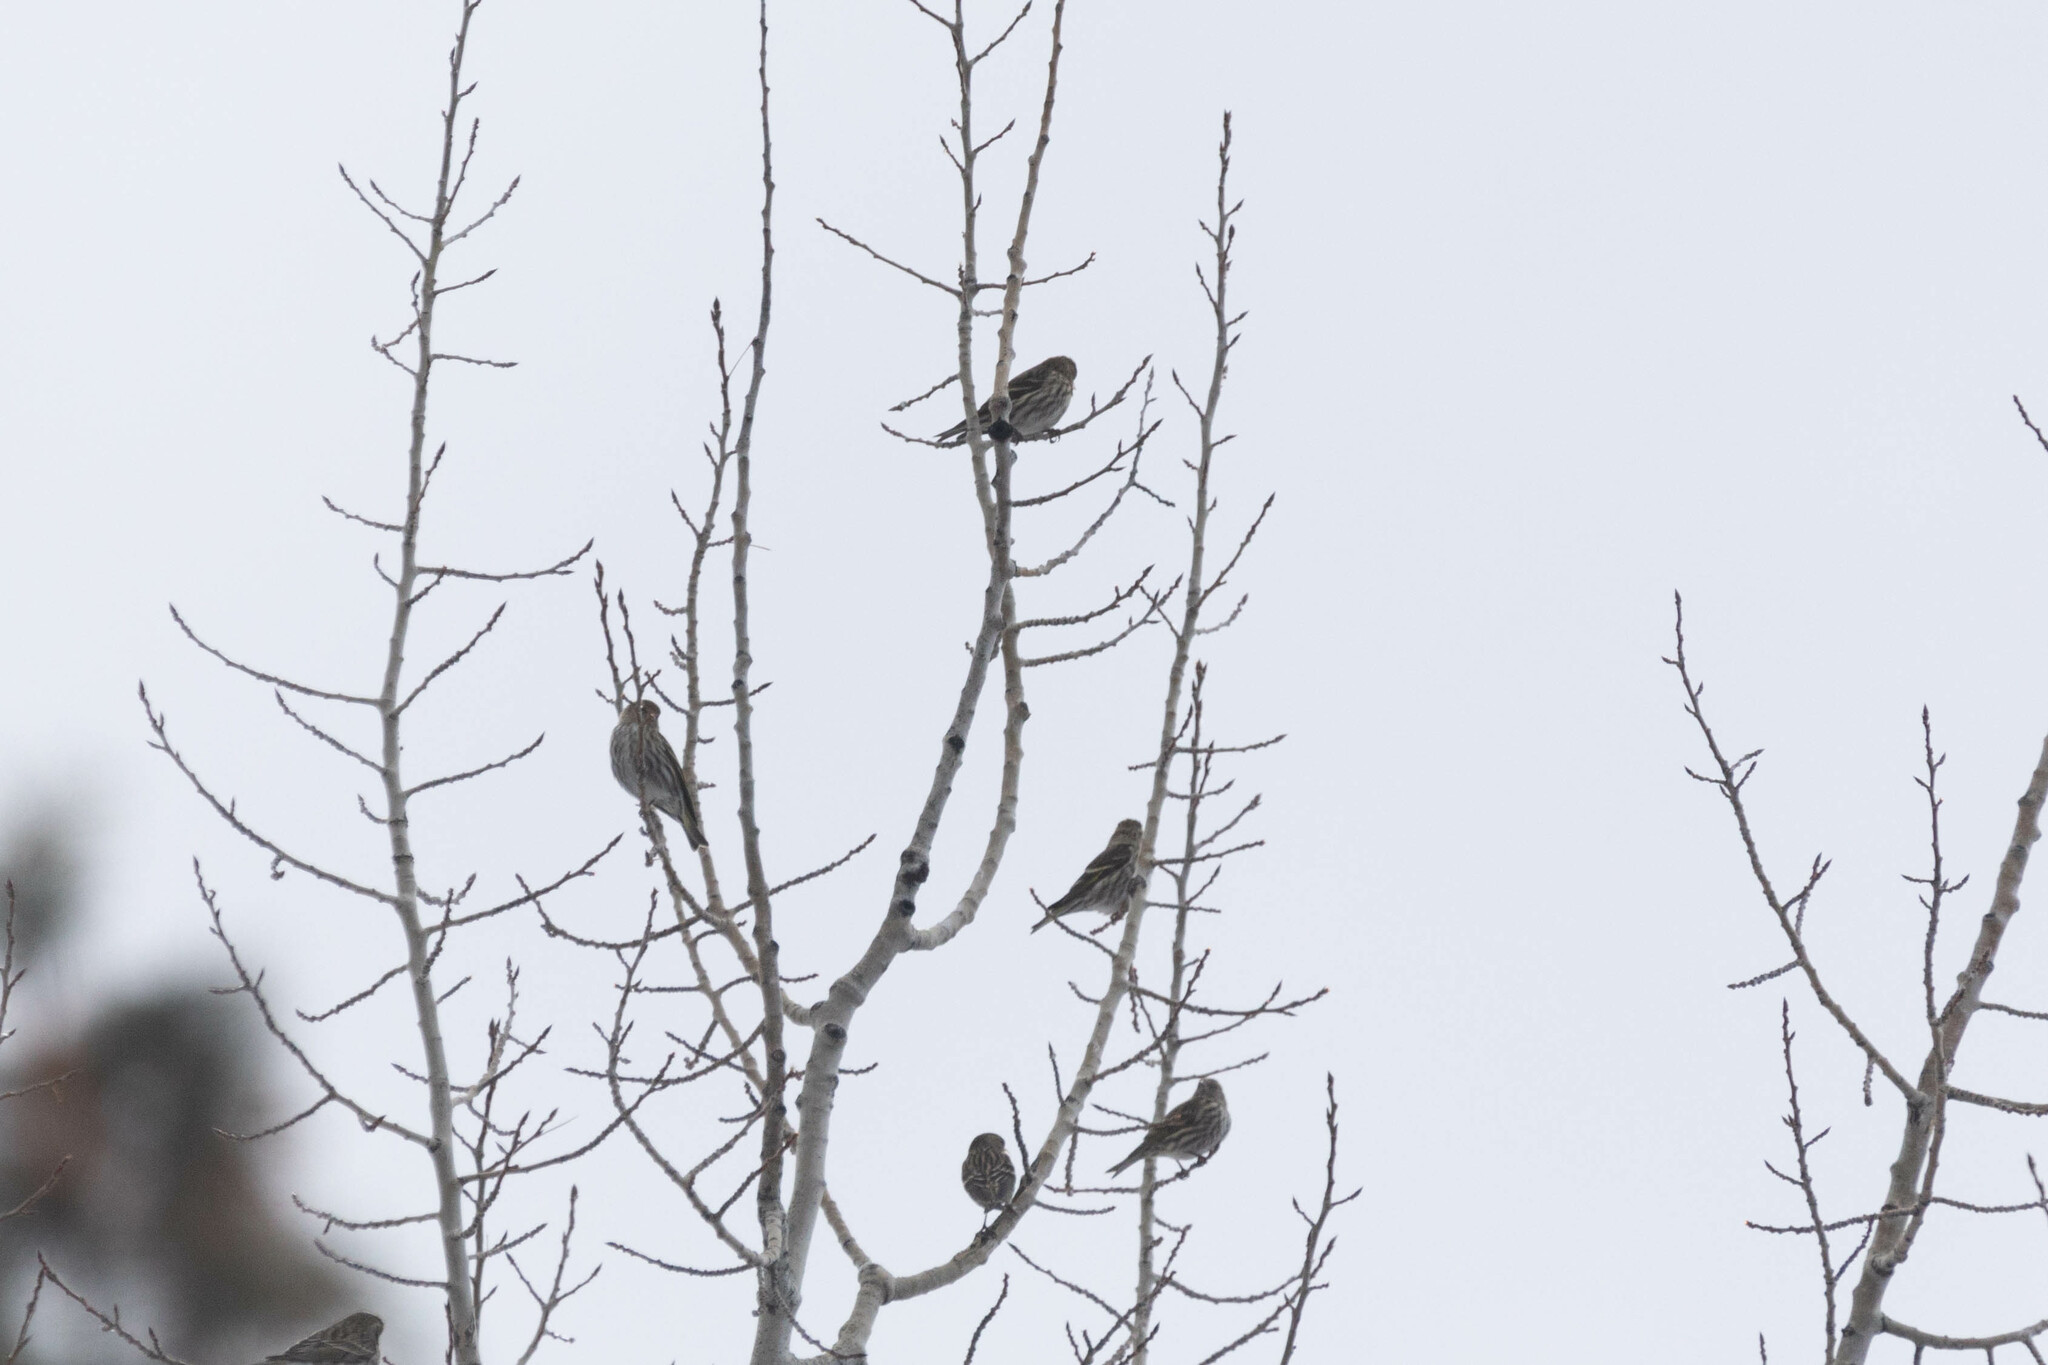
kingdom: Animalia
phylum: Chordata
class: Aves
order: Passeriformes
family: Fringillidae
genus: Spinus
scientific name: Spinus pinus
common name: Pine siskin
